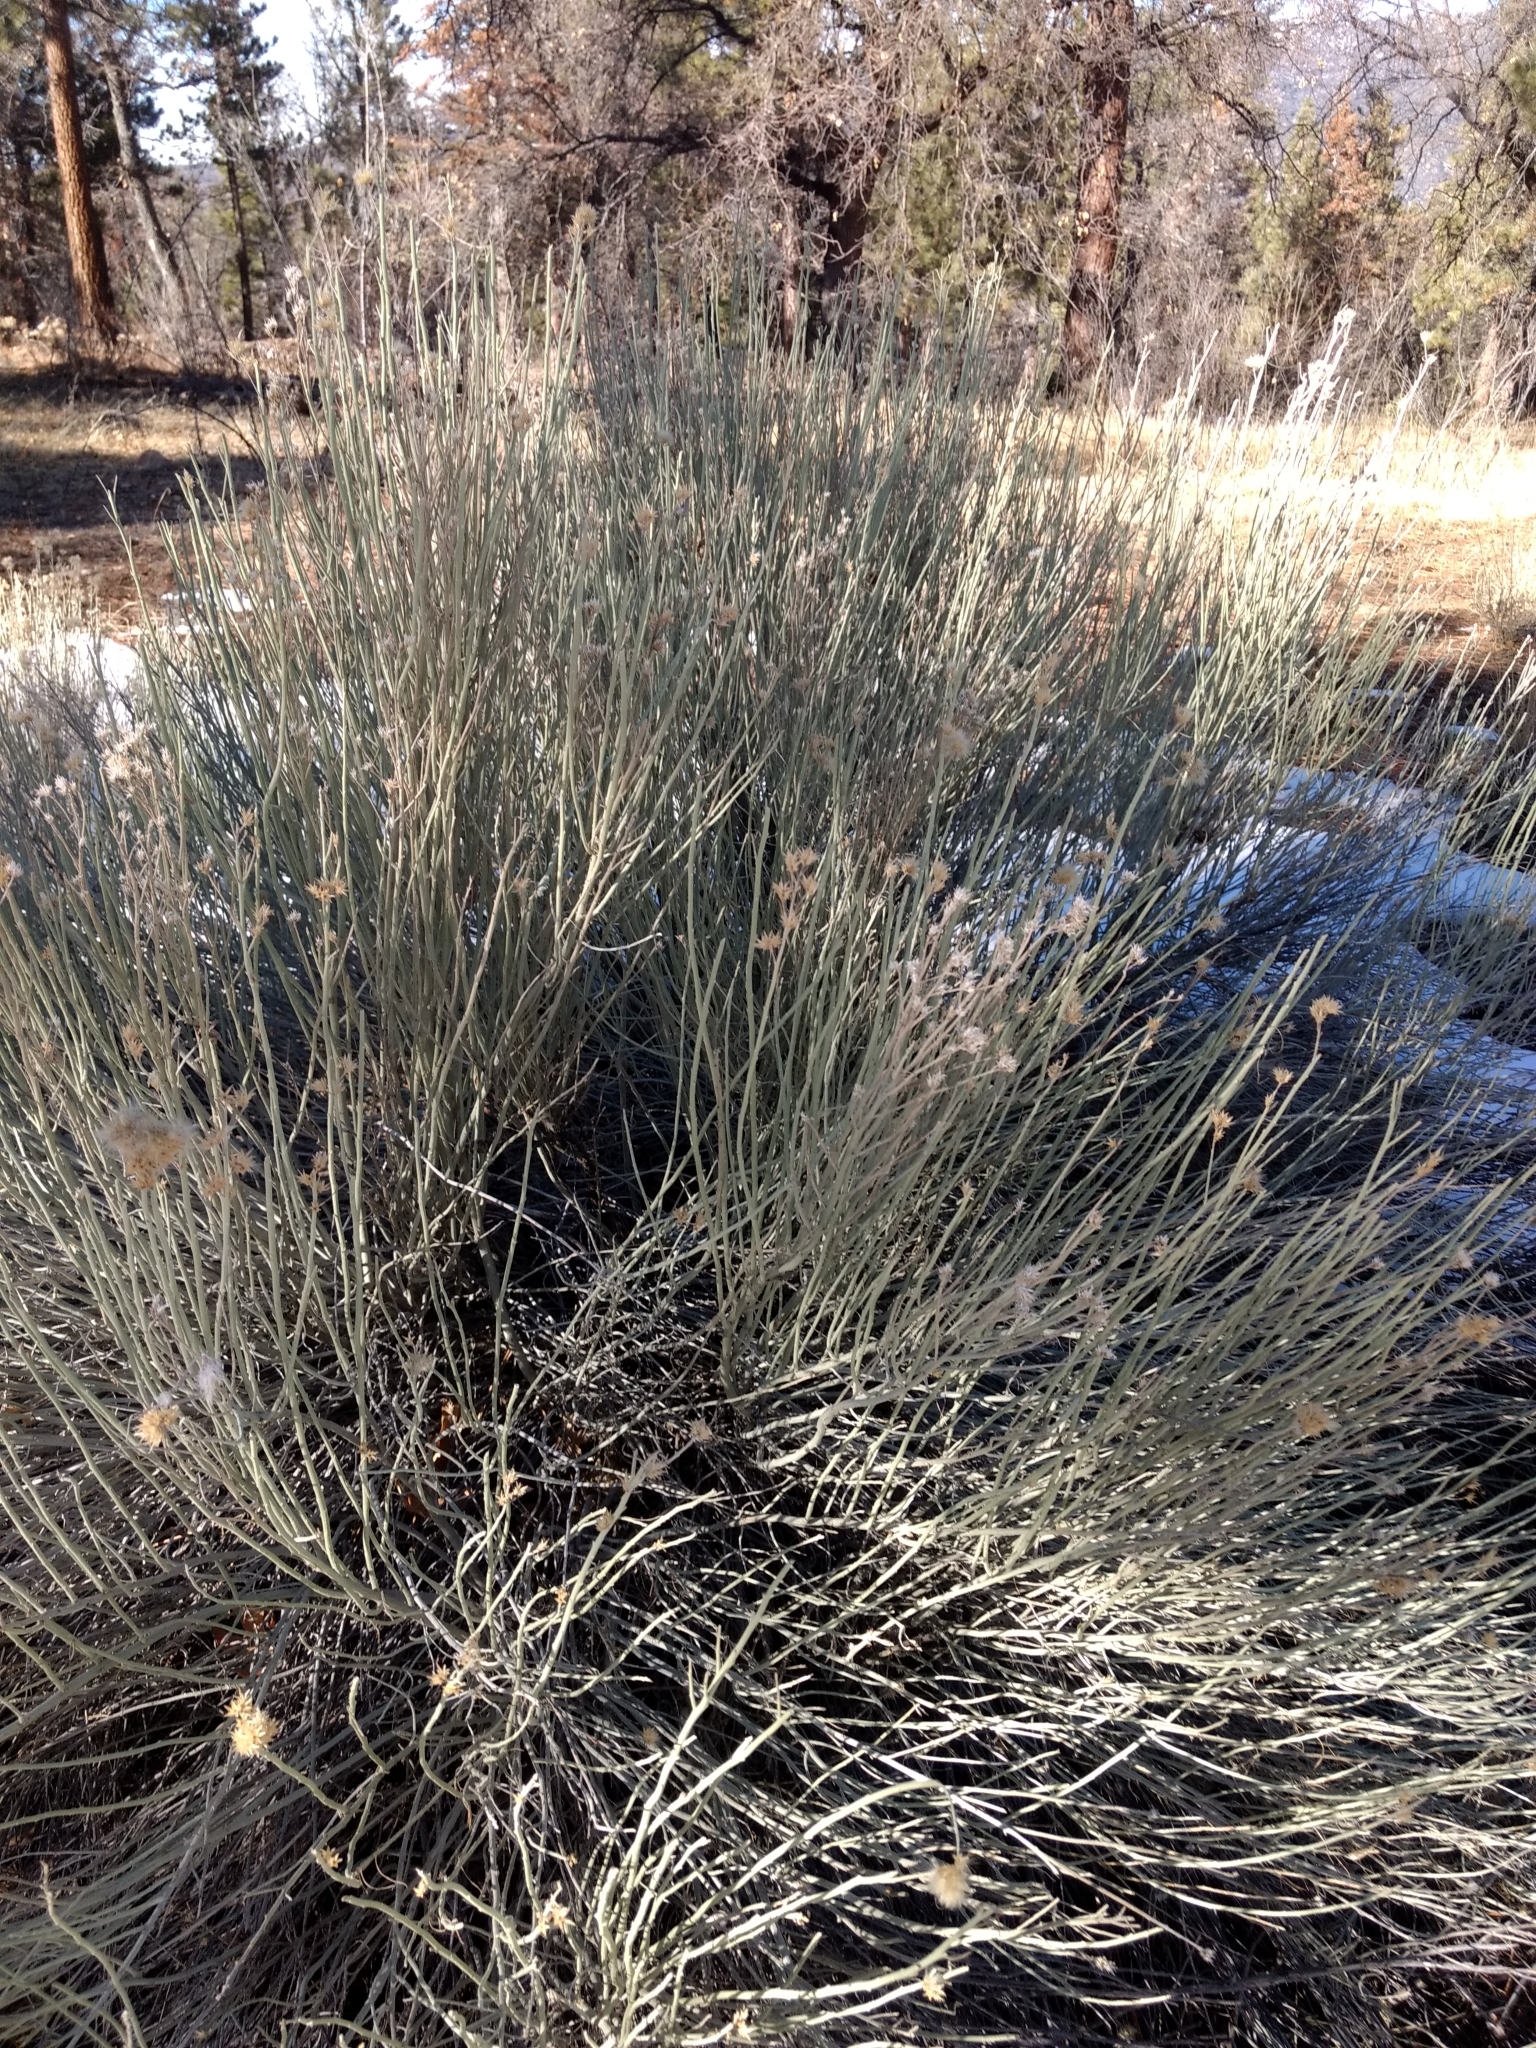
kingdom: Plantae
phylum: Tracheophyta
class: Magnoliopsida
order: Asterales
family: Asteraceae
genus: Ericameria
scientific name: Ericameria nauseosa
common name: Rubber rabbitbrush
